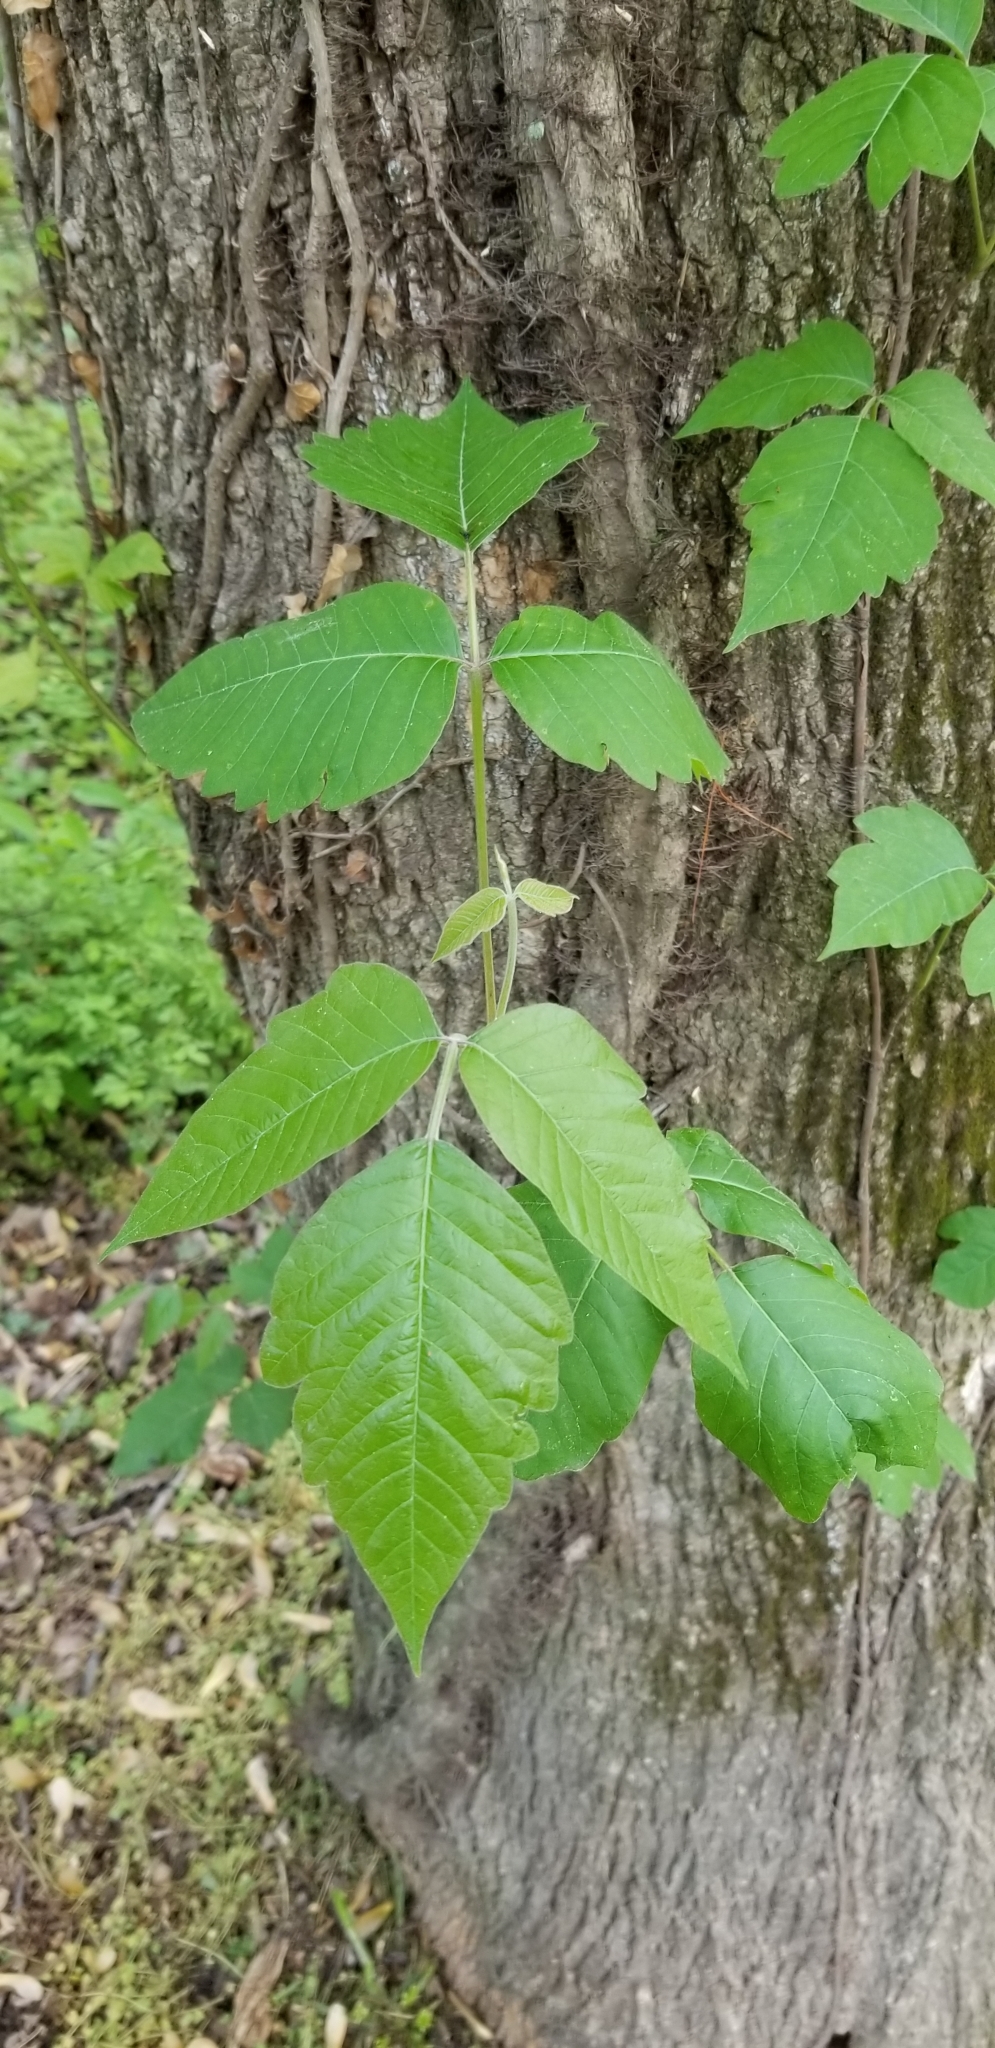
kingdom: Plantae
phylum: Tracheophyta
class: Magnoliopsida
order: Sapindales
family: Anacardiaceae
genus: Toxicodendron
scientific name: Toxicodendron radicans
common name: Poison ivy
